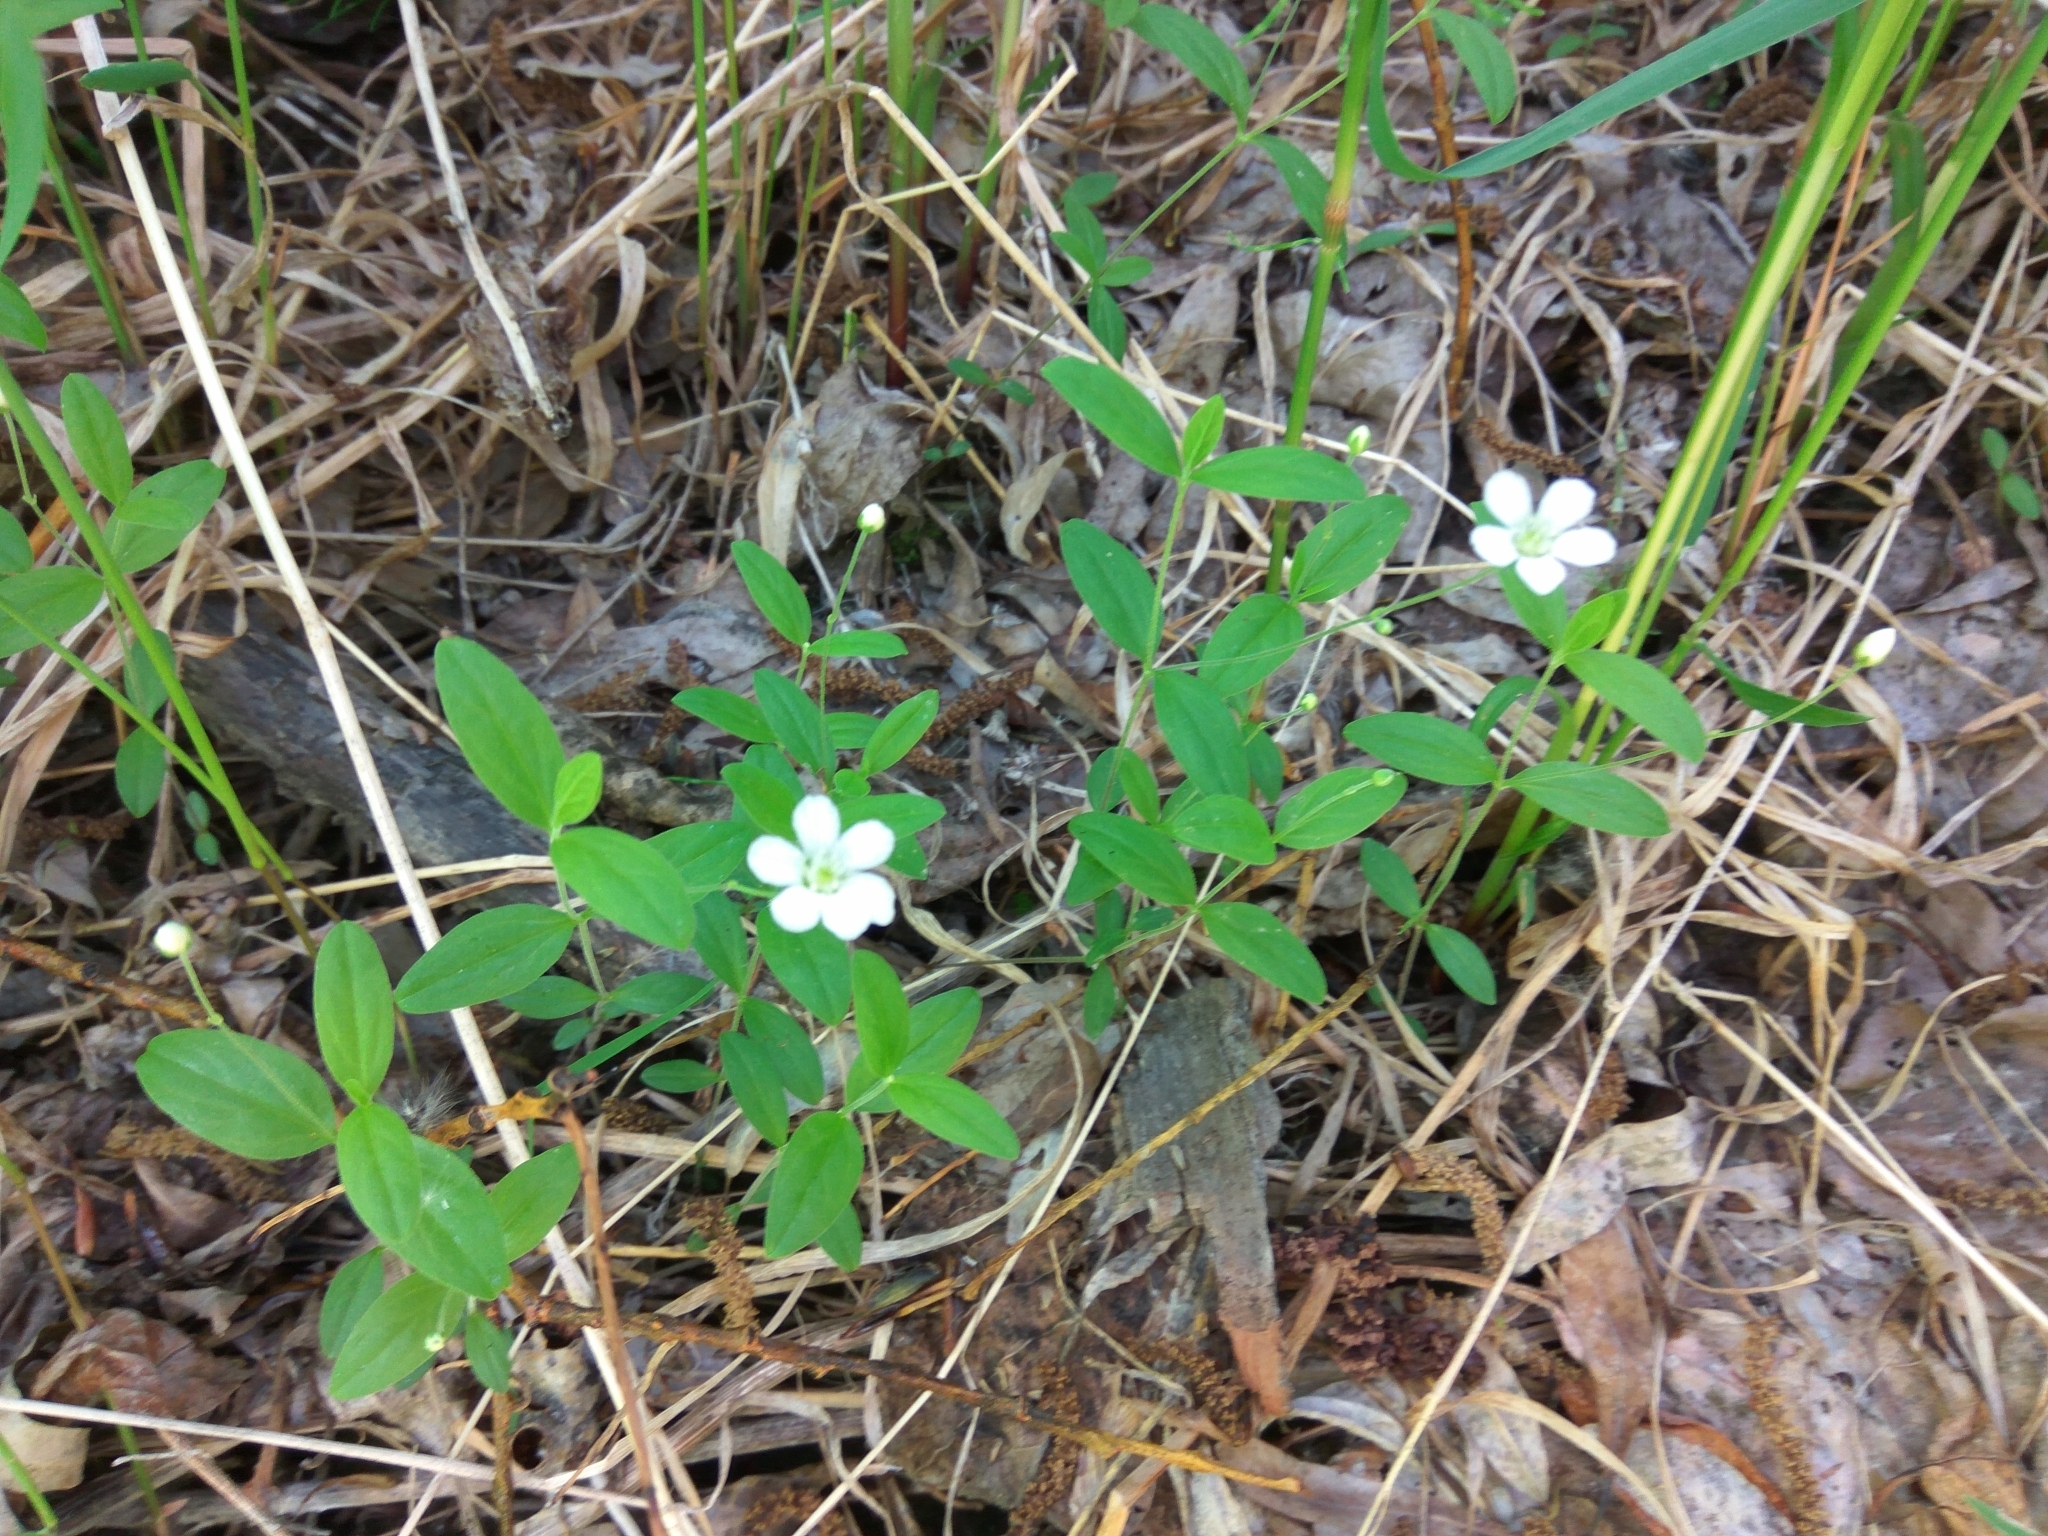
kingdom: Plantae
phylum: Tracheophyta
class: Magnoliopsida
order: Caryophyllales
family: Caryophyllaceae
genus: Moehringia
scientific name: Moehringia lateriflora
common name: Blunt-leaved sandwort
